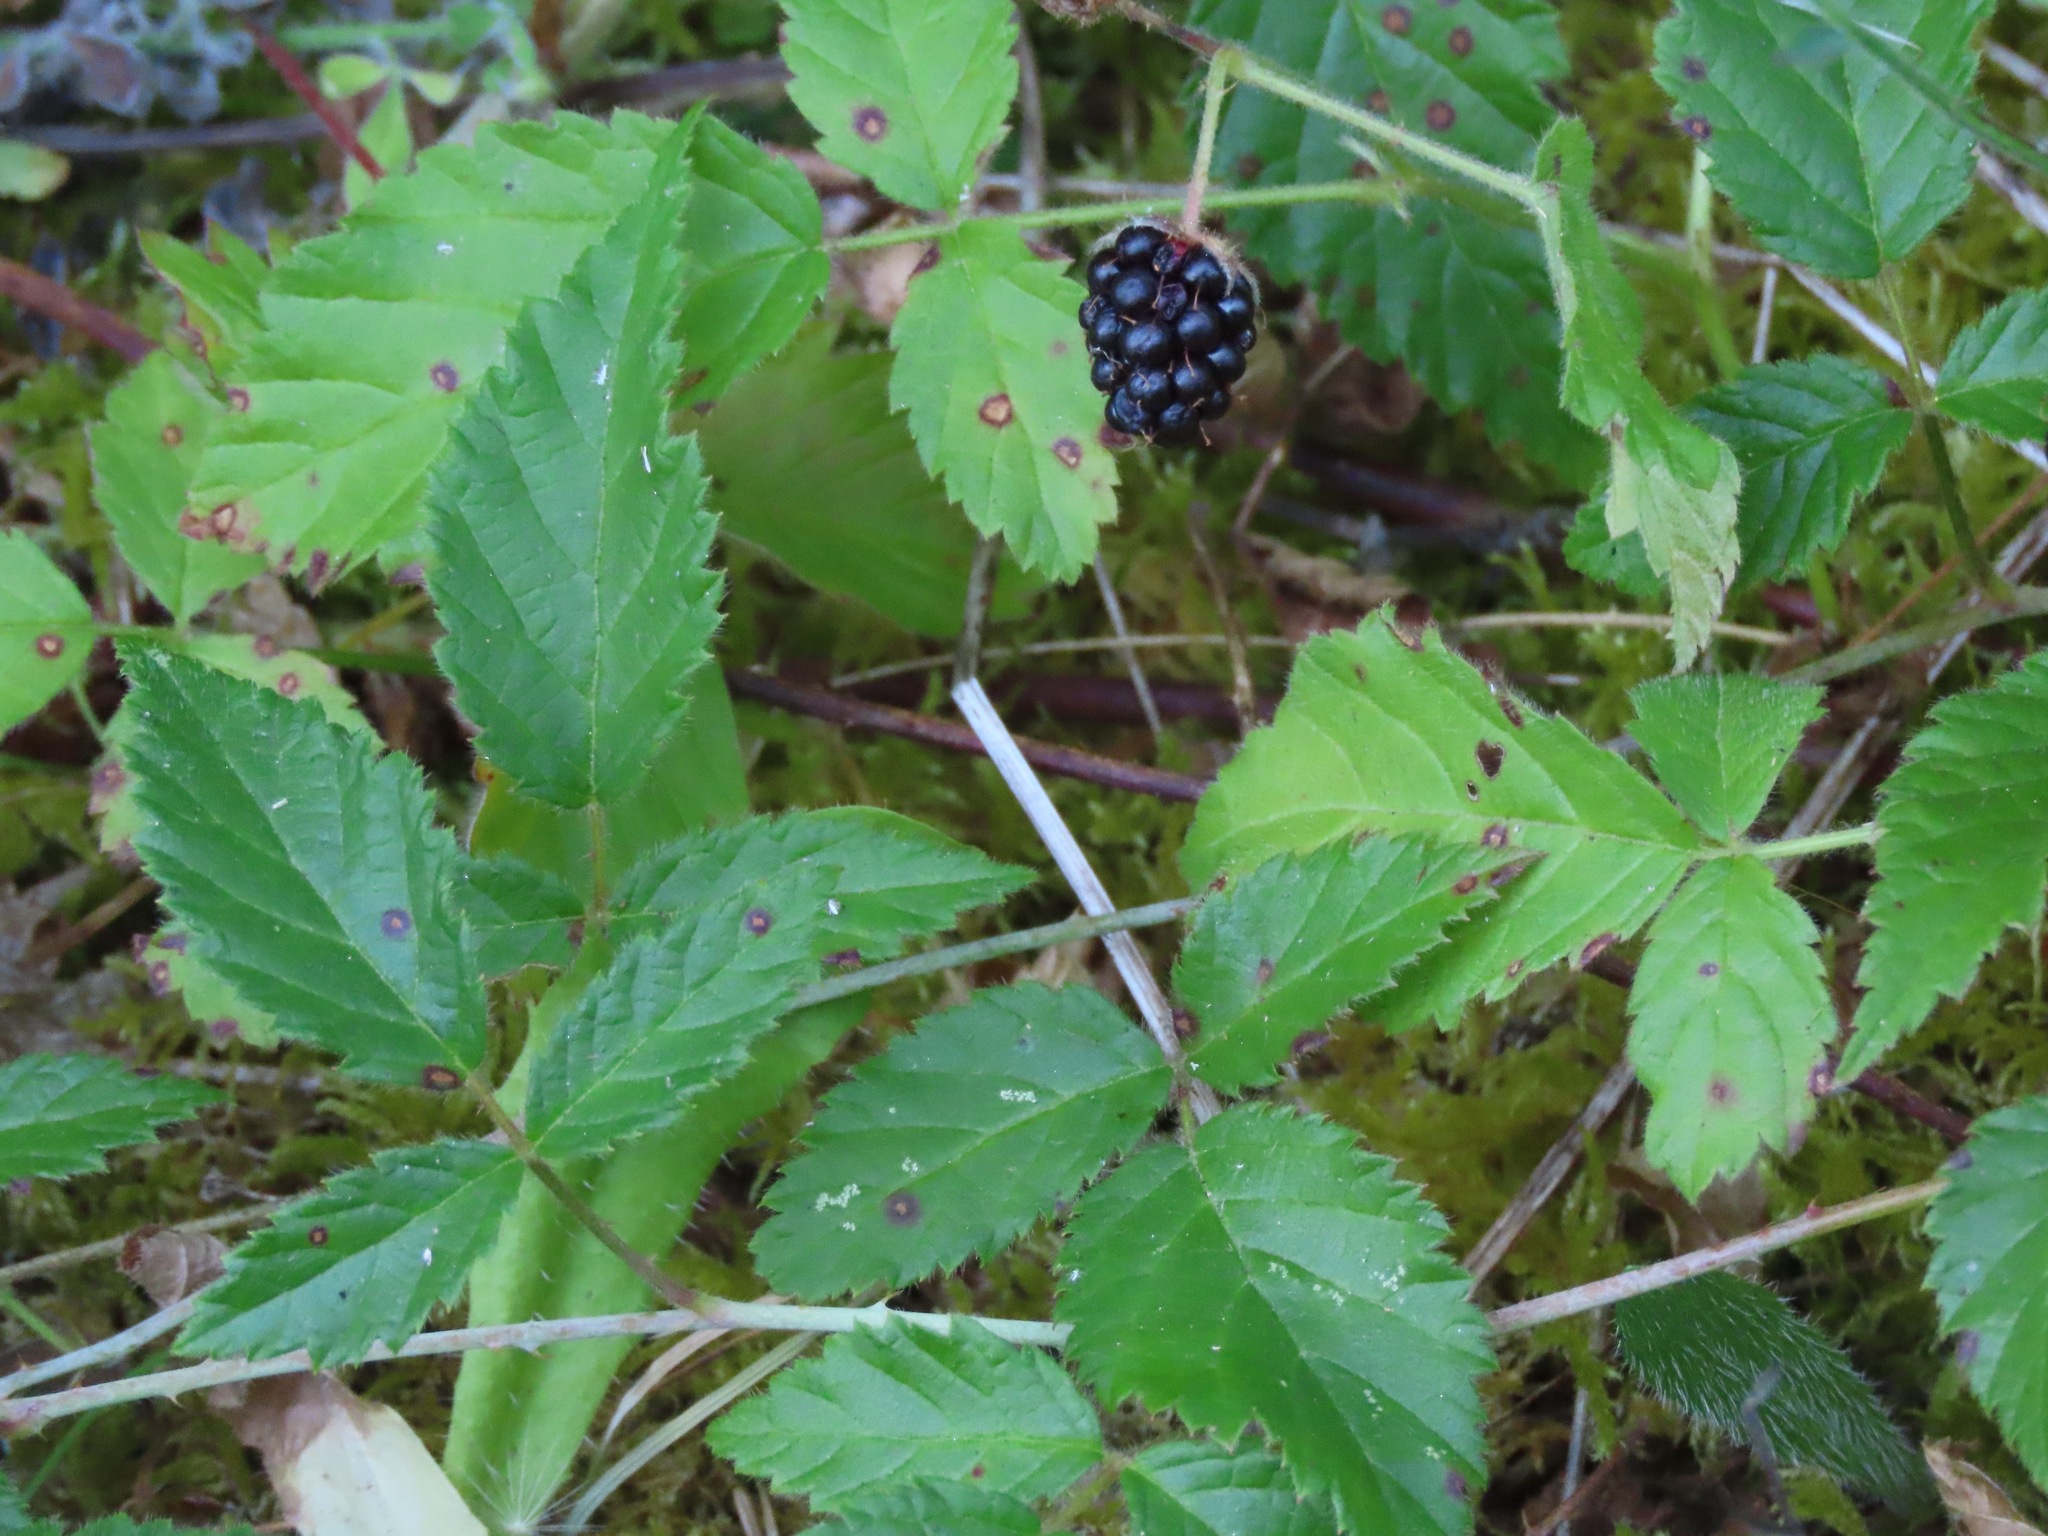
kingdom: Plantae
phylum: Tracheophyta
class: Magnoliopsida
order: Rosales
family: Rosaceae
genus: Rubus
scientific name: Rubus ursinus
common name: Pacific blackberry
